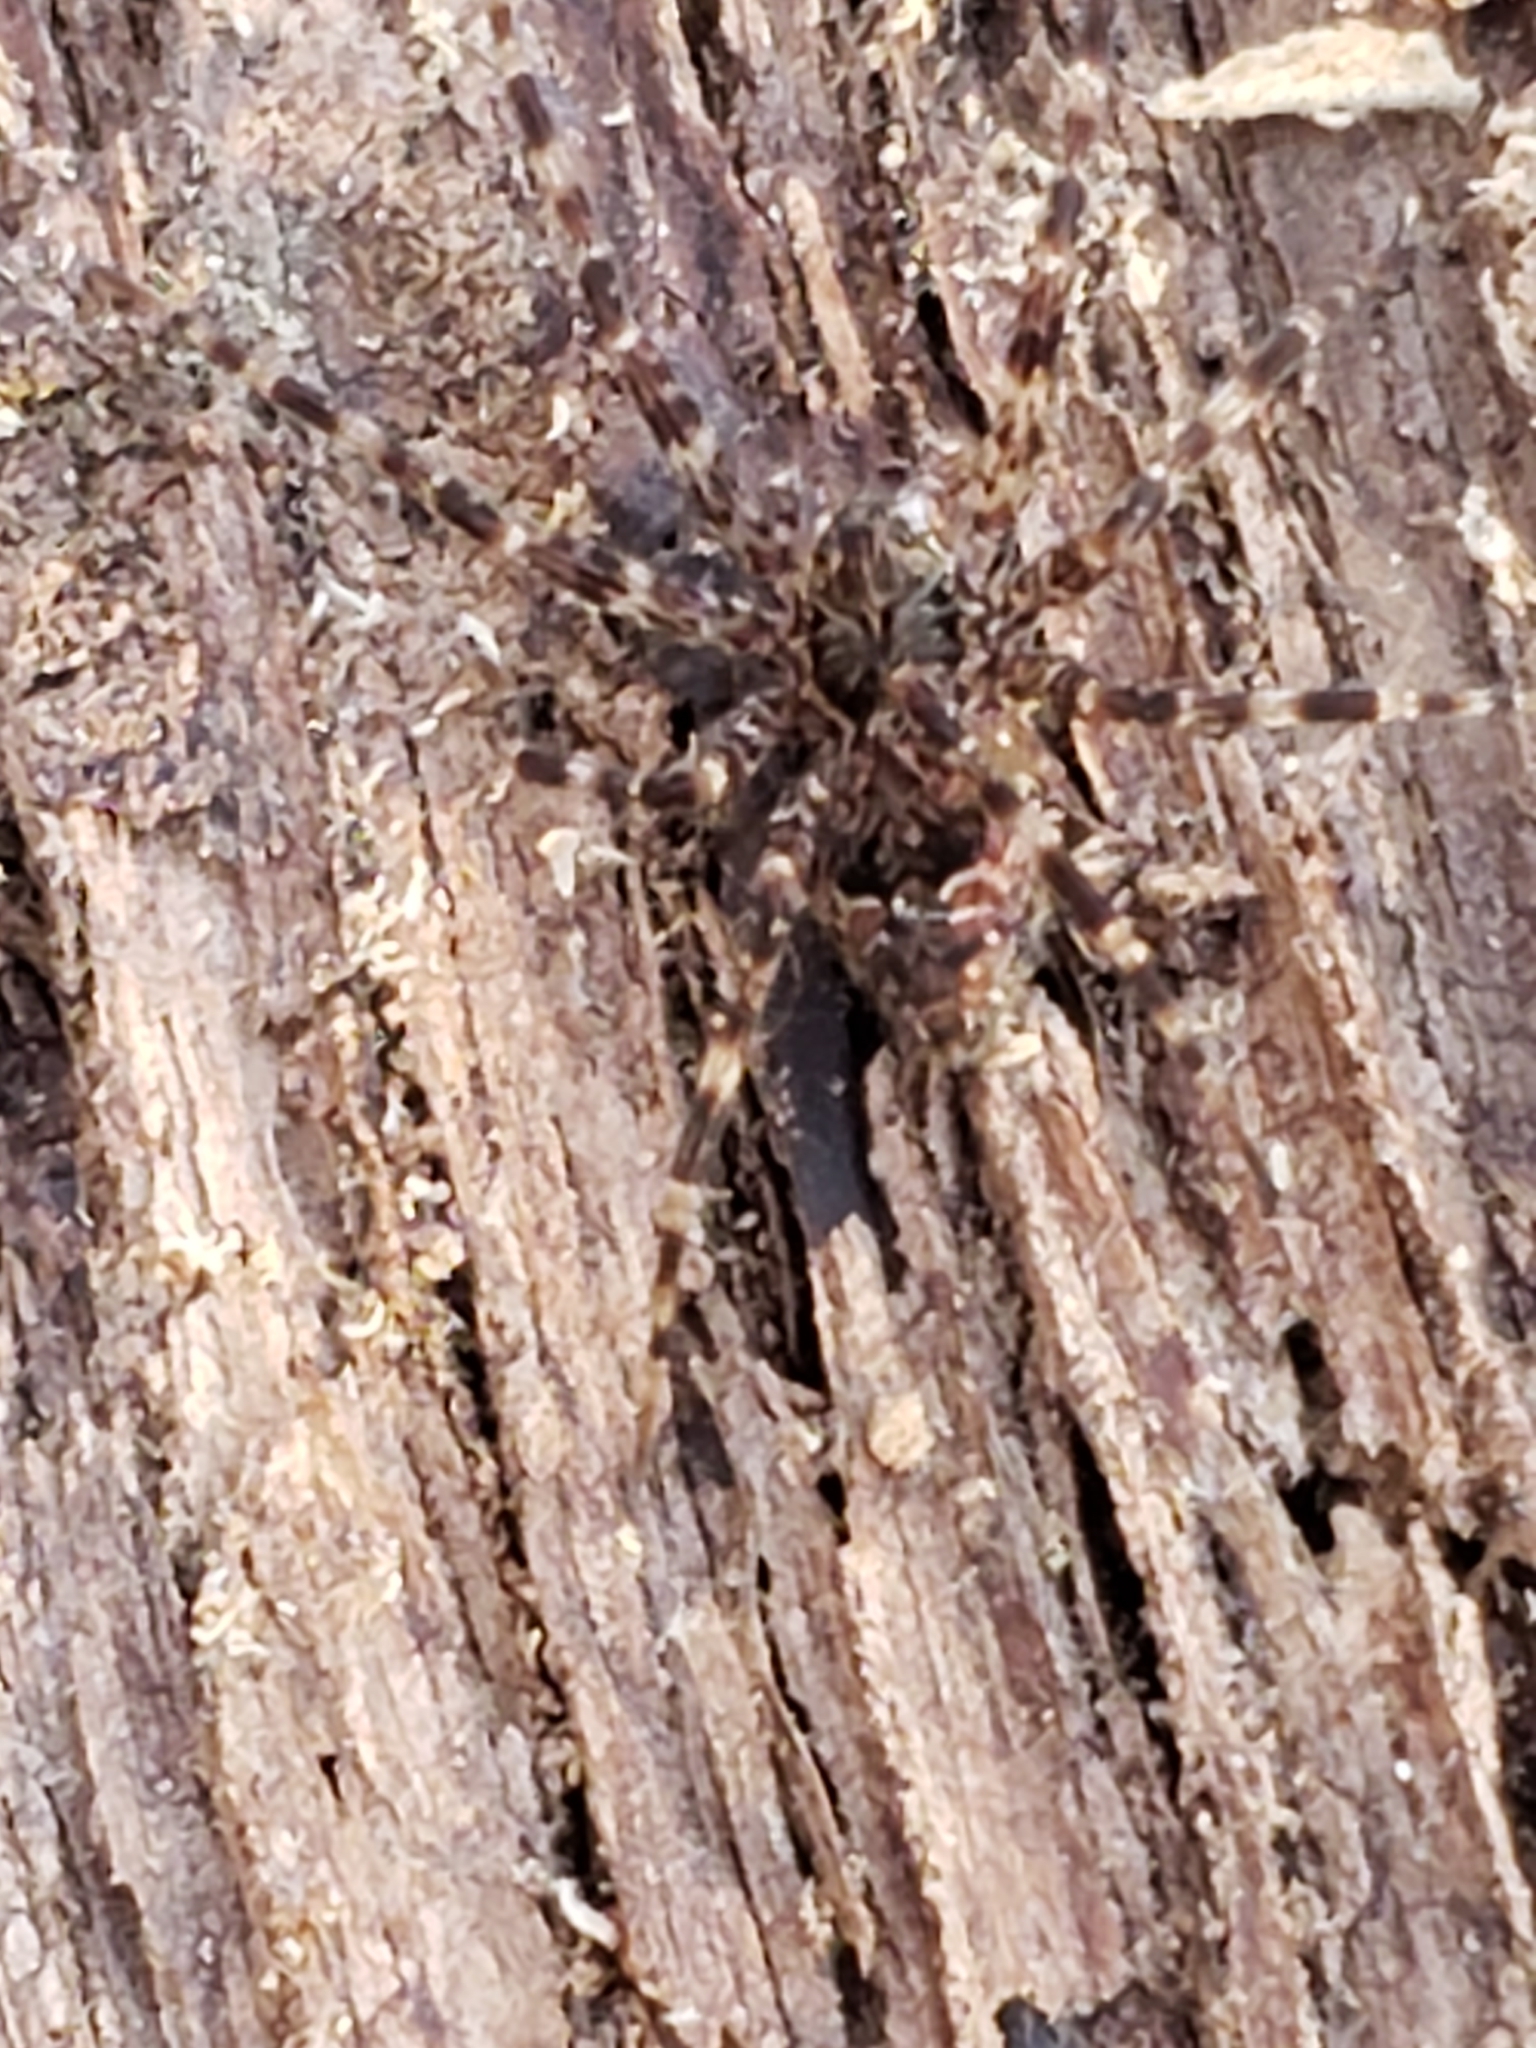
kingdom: Animalia
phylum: Arthropoda
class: Arachnida
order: Araneae
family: Pisauridae
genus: Dolomedes
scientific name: Dolomedes tenebrosus
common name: Dark fishing spider
